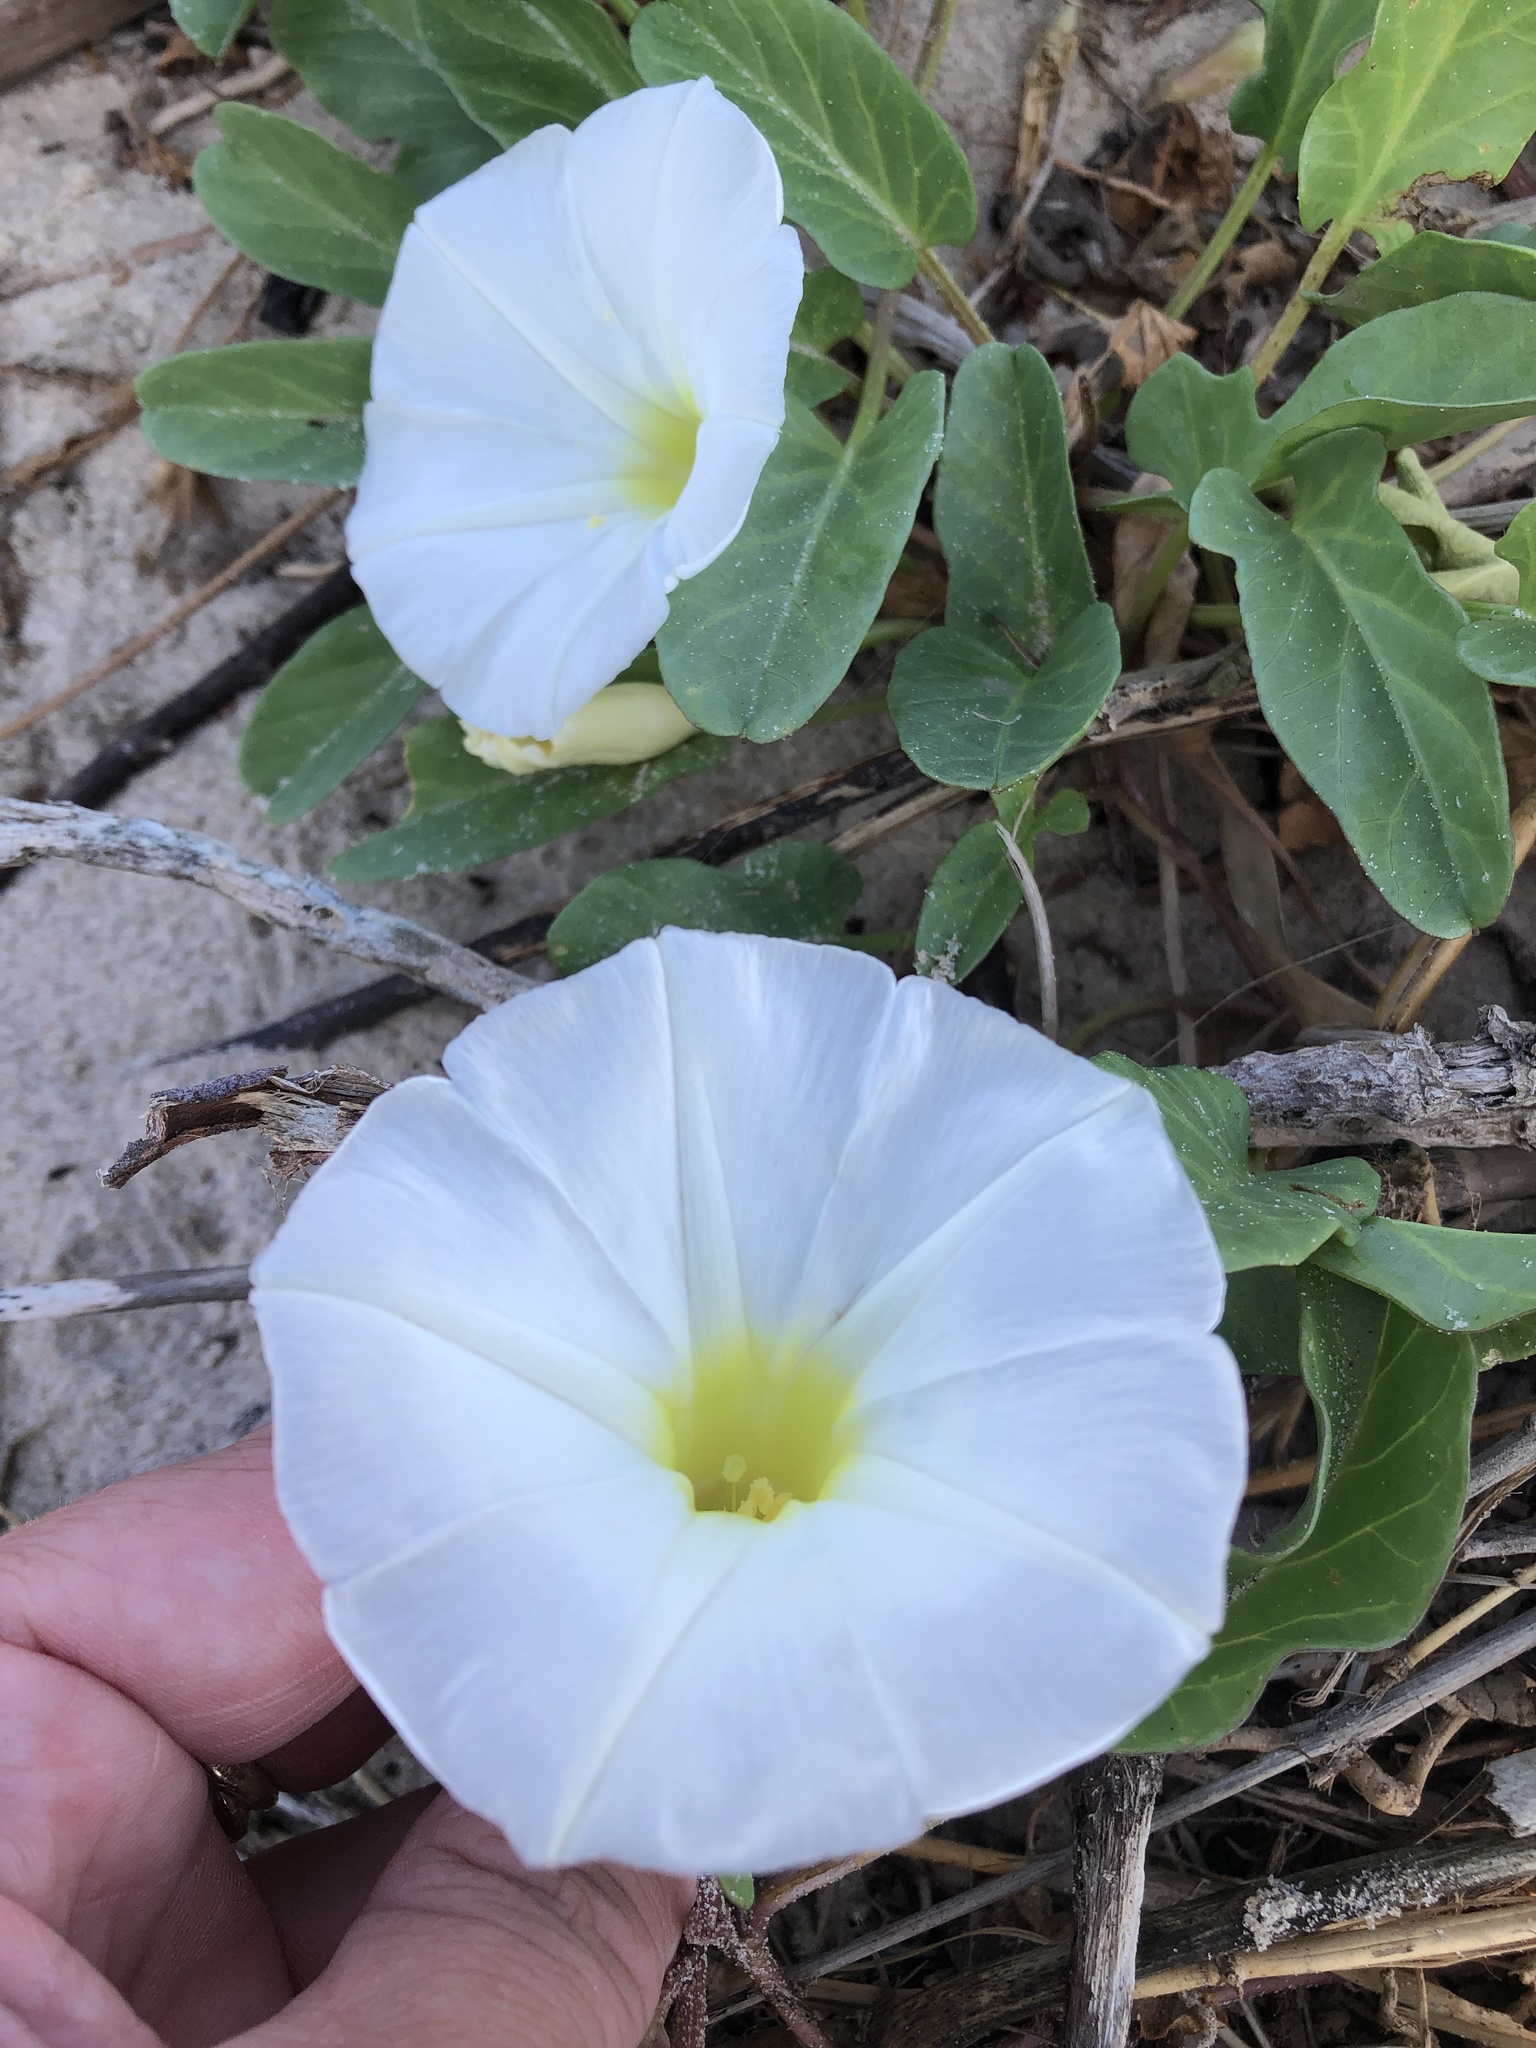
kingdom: Plantae
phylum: Tracheophyta
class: Magnoliopsida
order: Solanales
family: Convolvulaceae
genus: Ipomoea
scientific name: Ipomoea imperati
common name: Fiddle-leaf morning-glory
